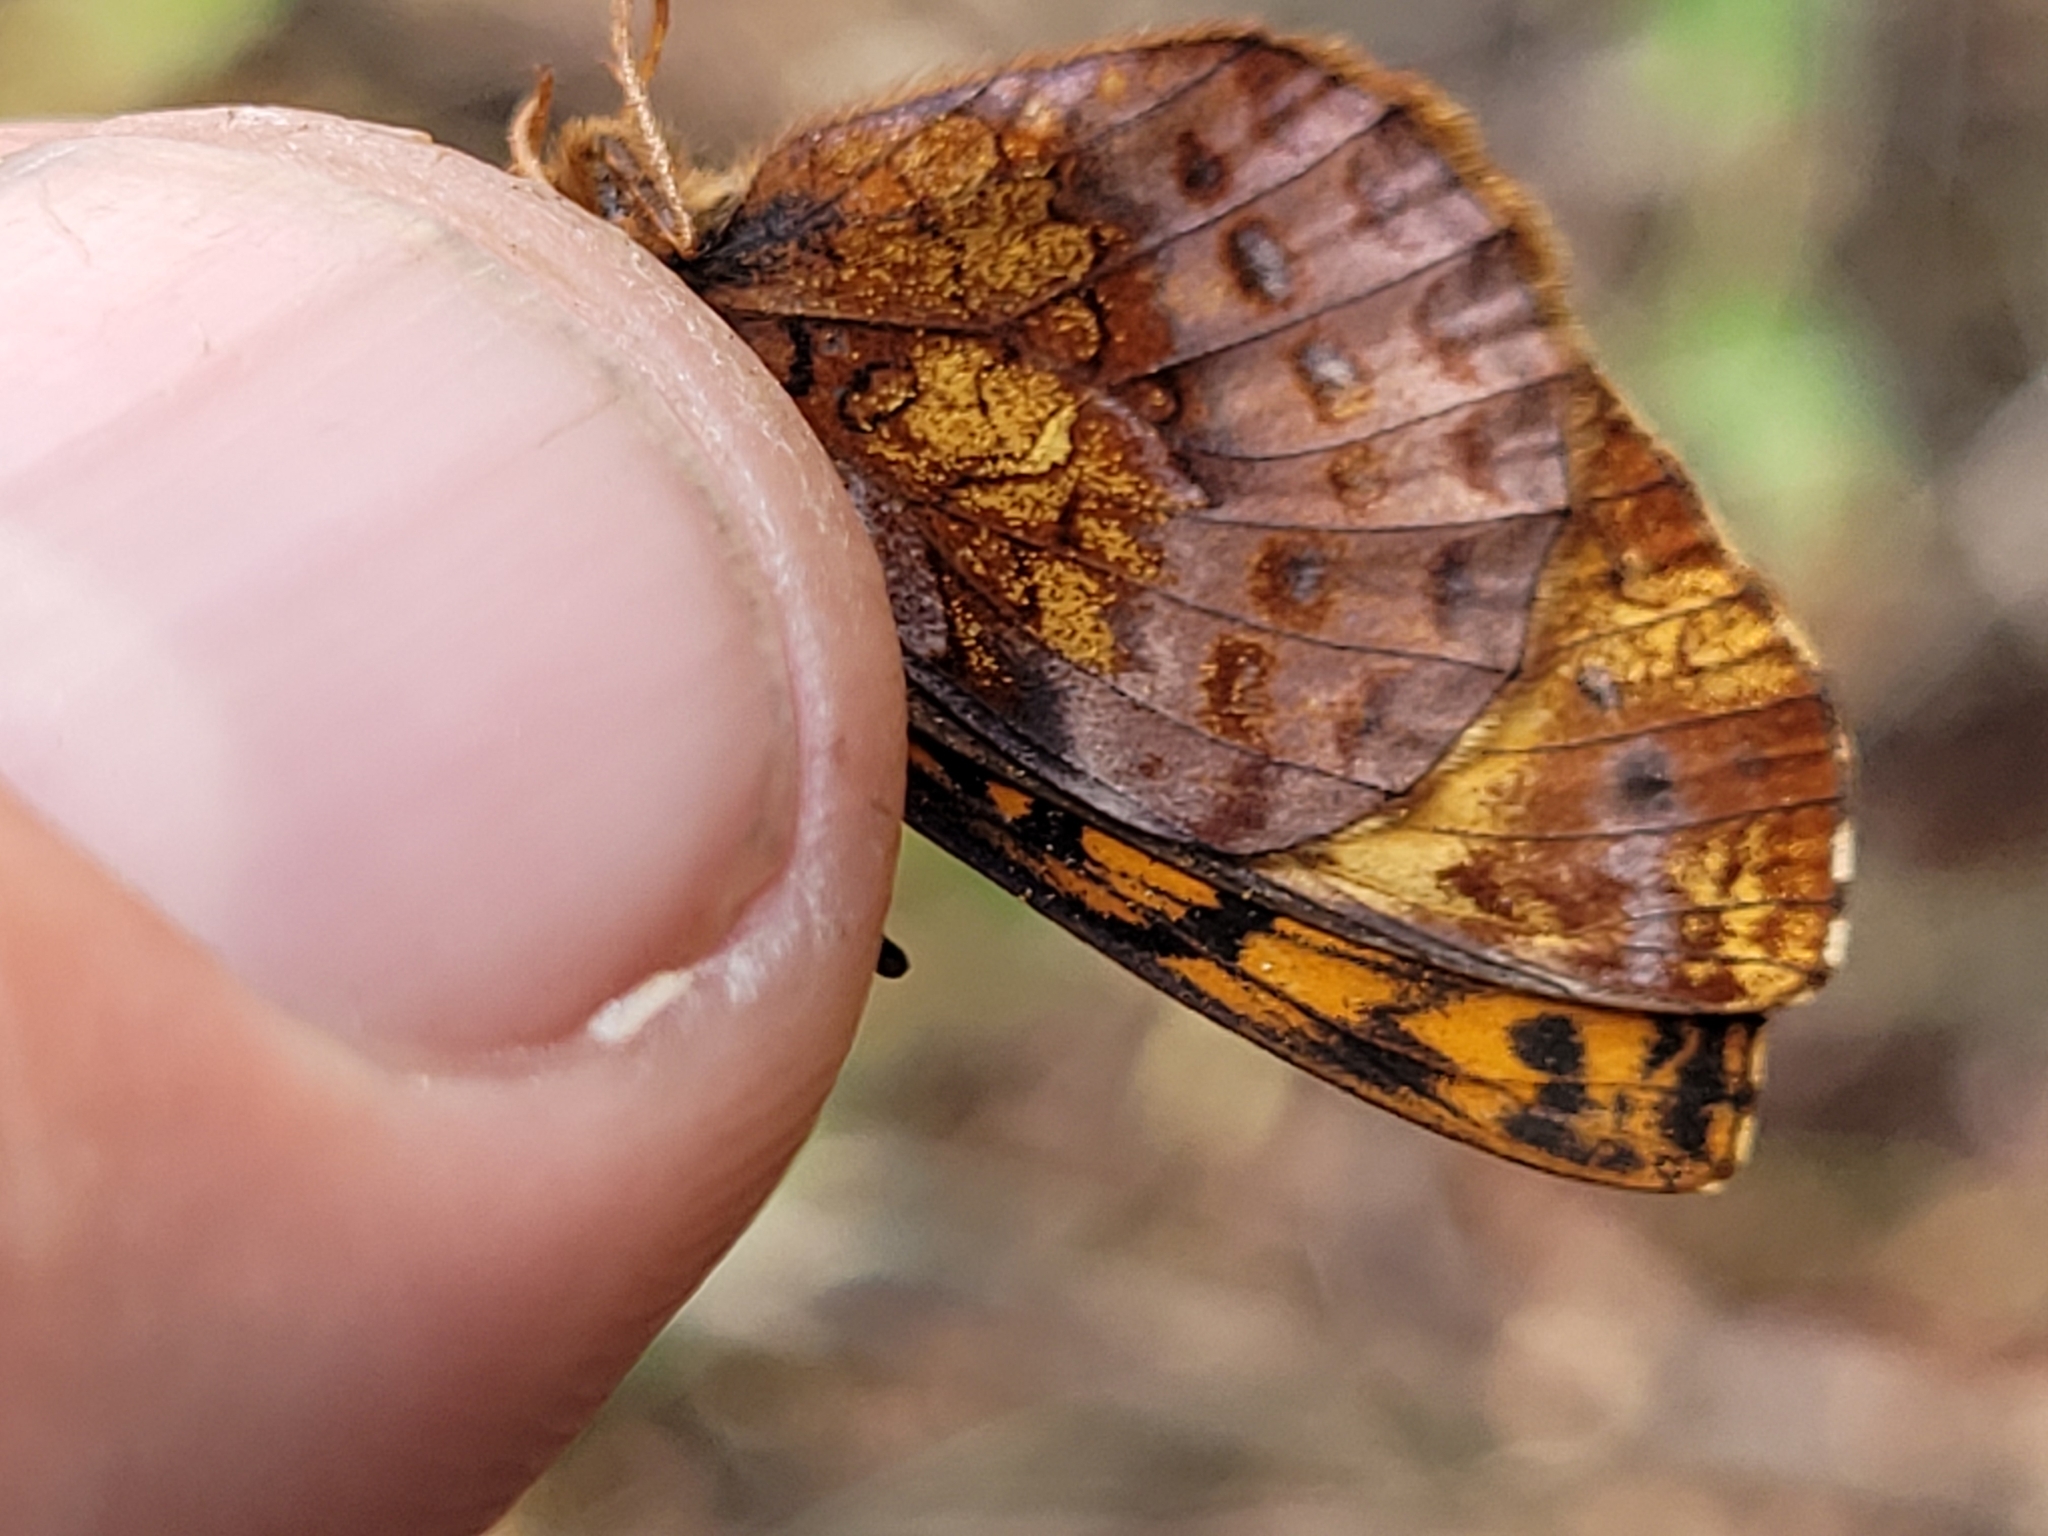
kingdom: Animalia
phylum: Arthropoda
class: Insecta
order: Lepidoptera
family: Nymphalidae
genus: Clossiana
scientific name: Clossiana toddi
